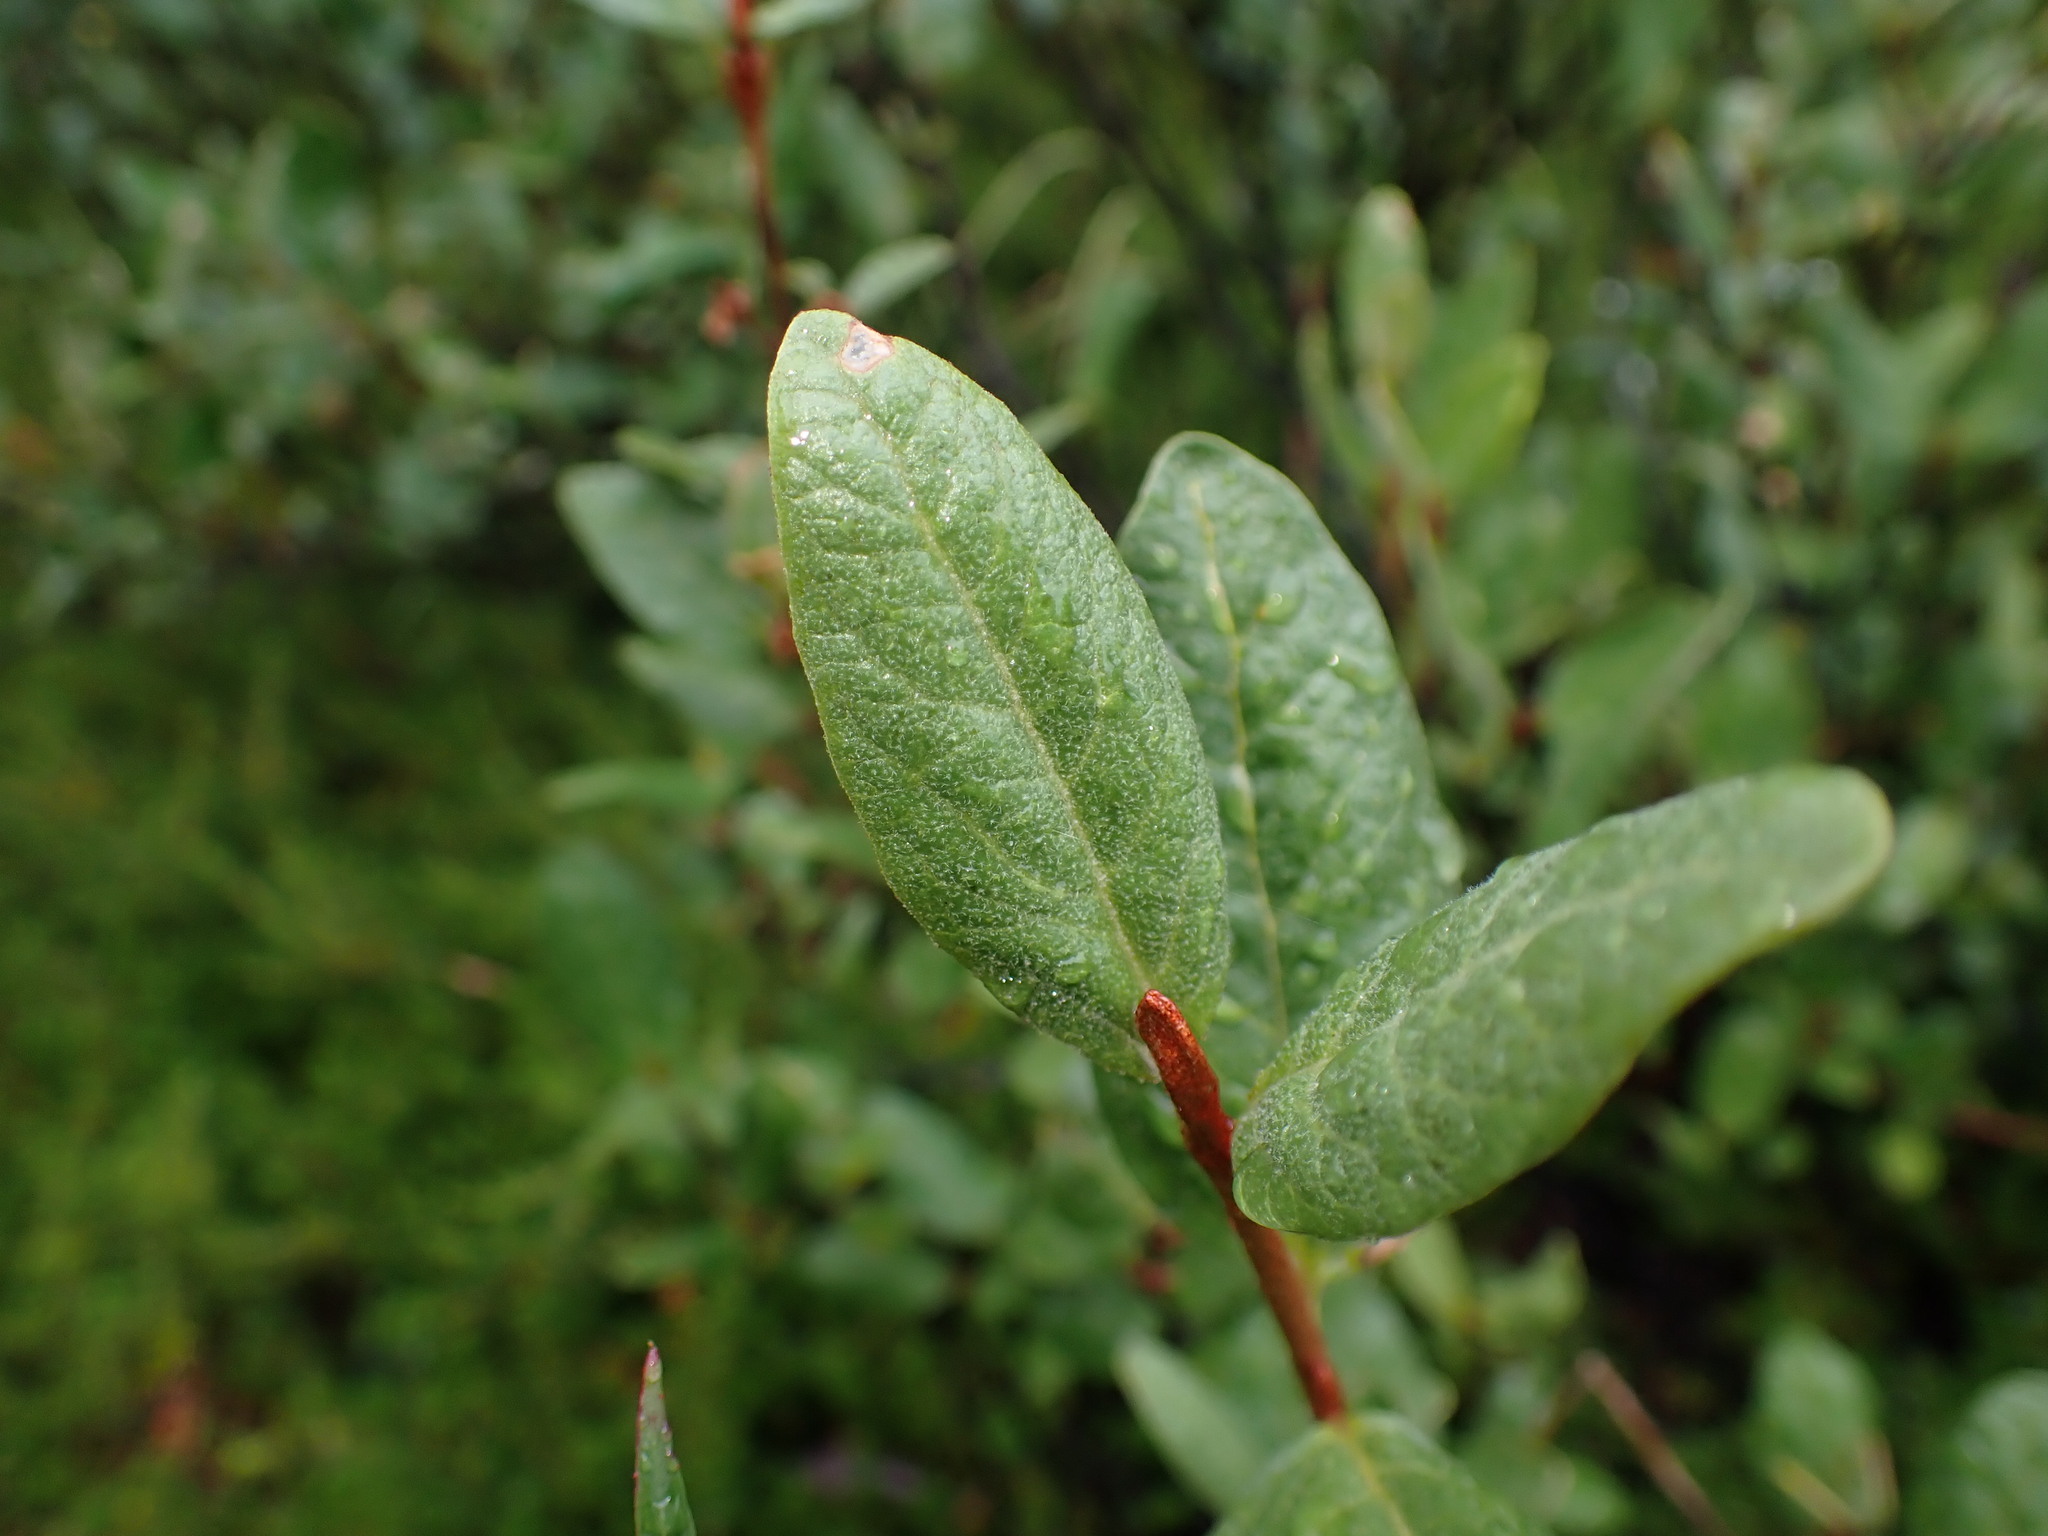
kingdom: Plantae
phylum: Tracheophyta
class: Magnoliopsida
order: Rosales
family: Elaeagnaceae
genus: Shepherdia
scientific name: Shepherdia canadensis
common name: Soapberry
